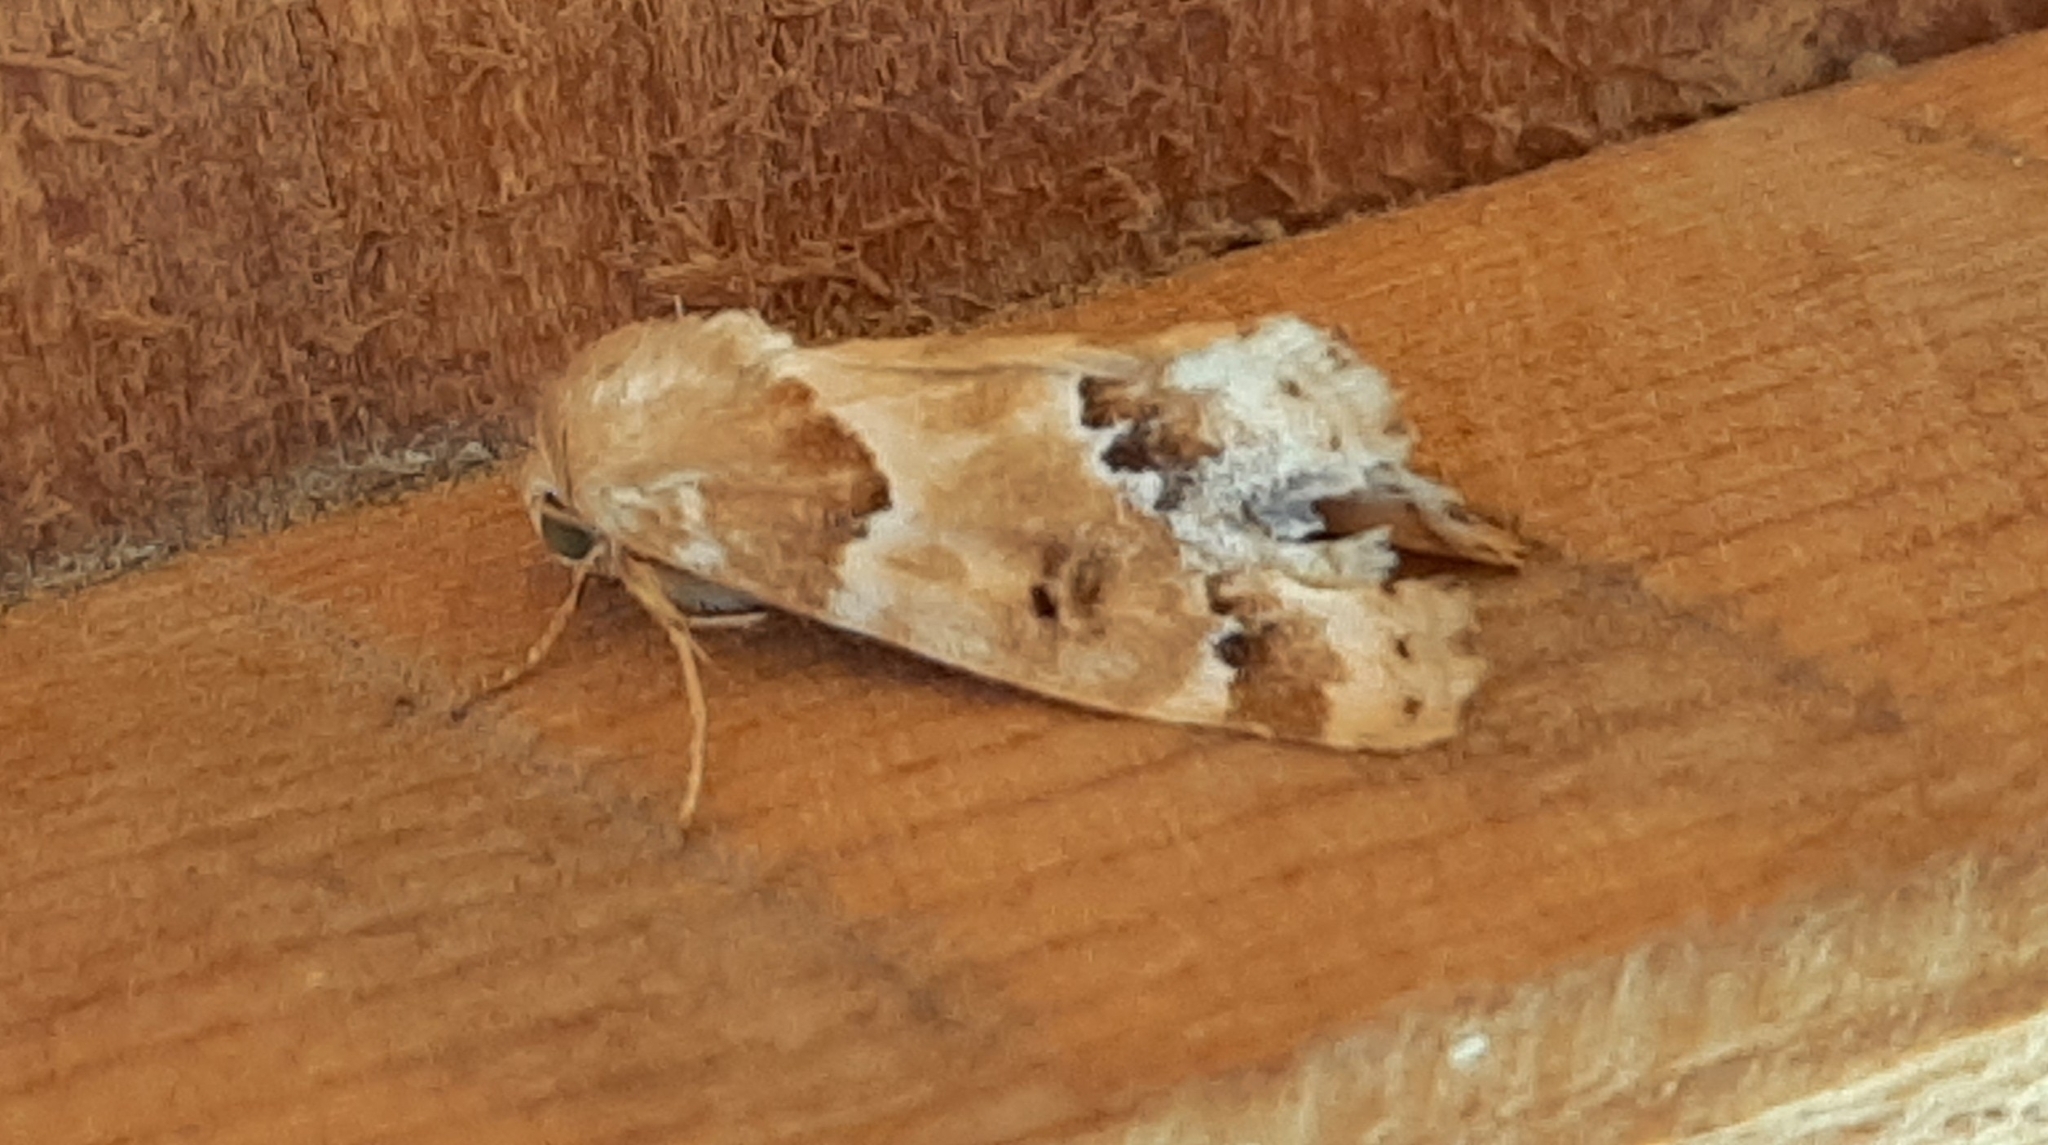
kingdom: Animalia
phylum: Arthropoda
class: Insecta
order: Lepidoptera
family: Noctuidae
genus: Schinia
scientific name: Schinia walsinghami
